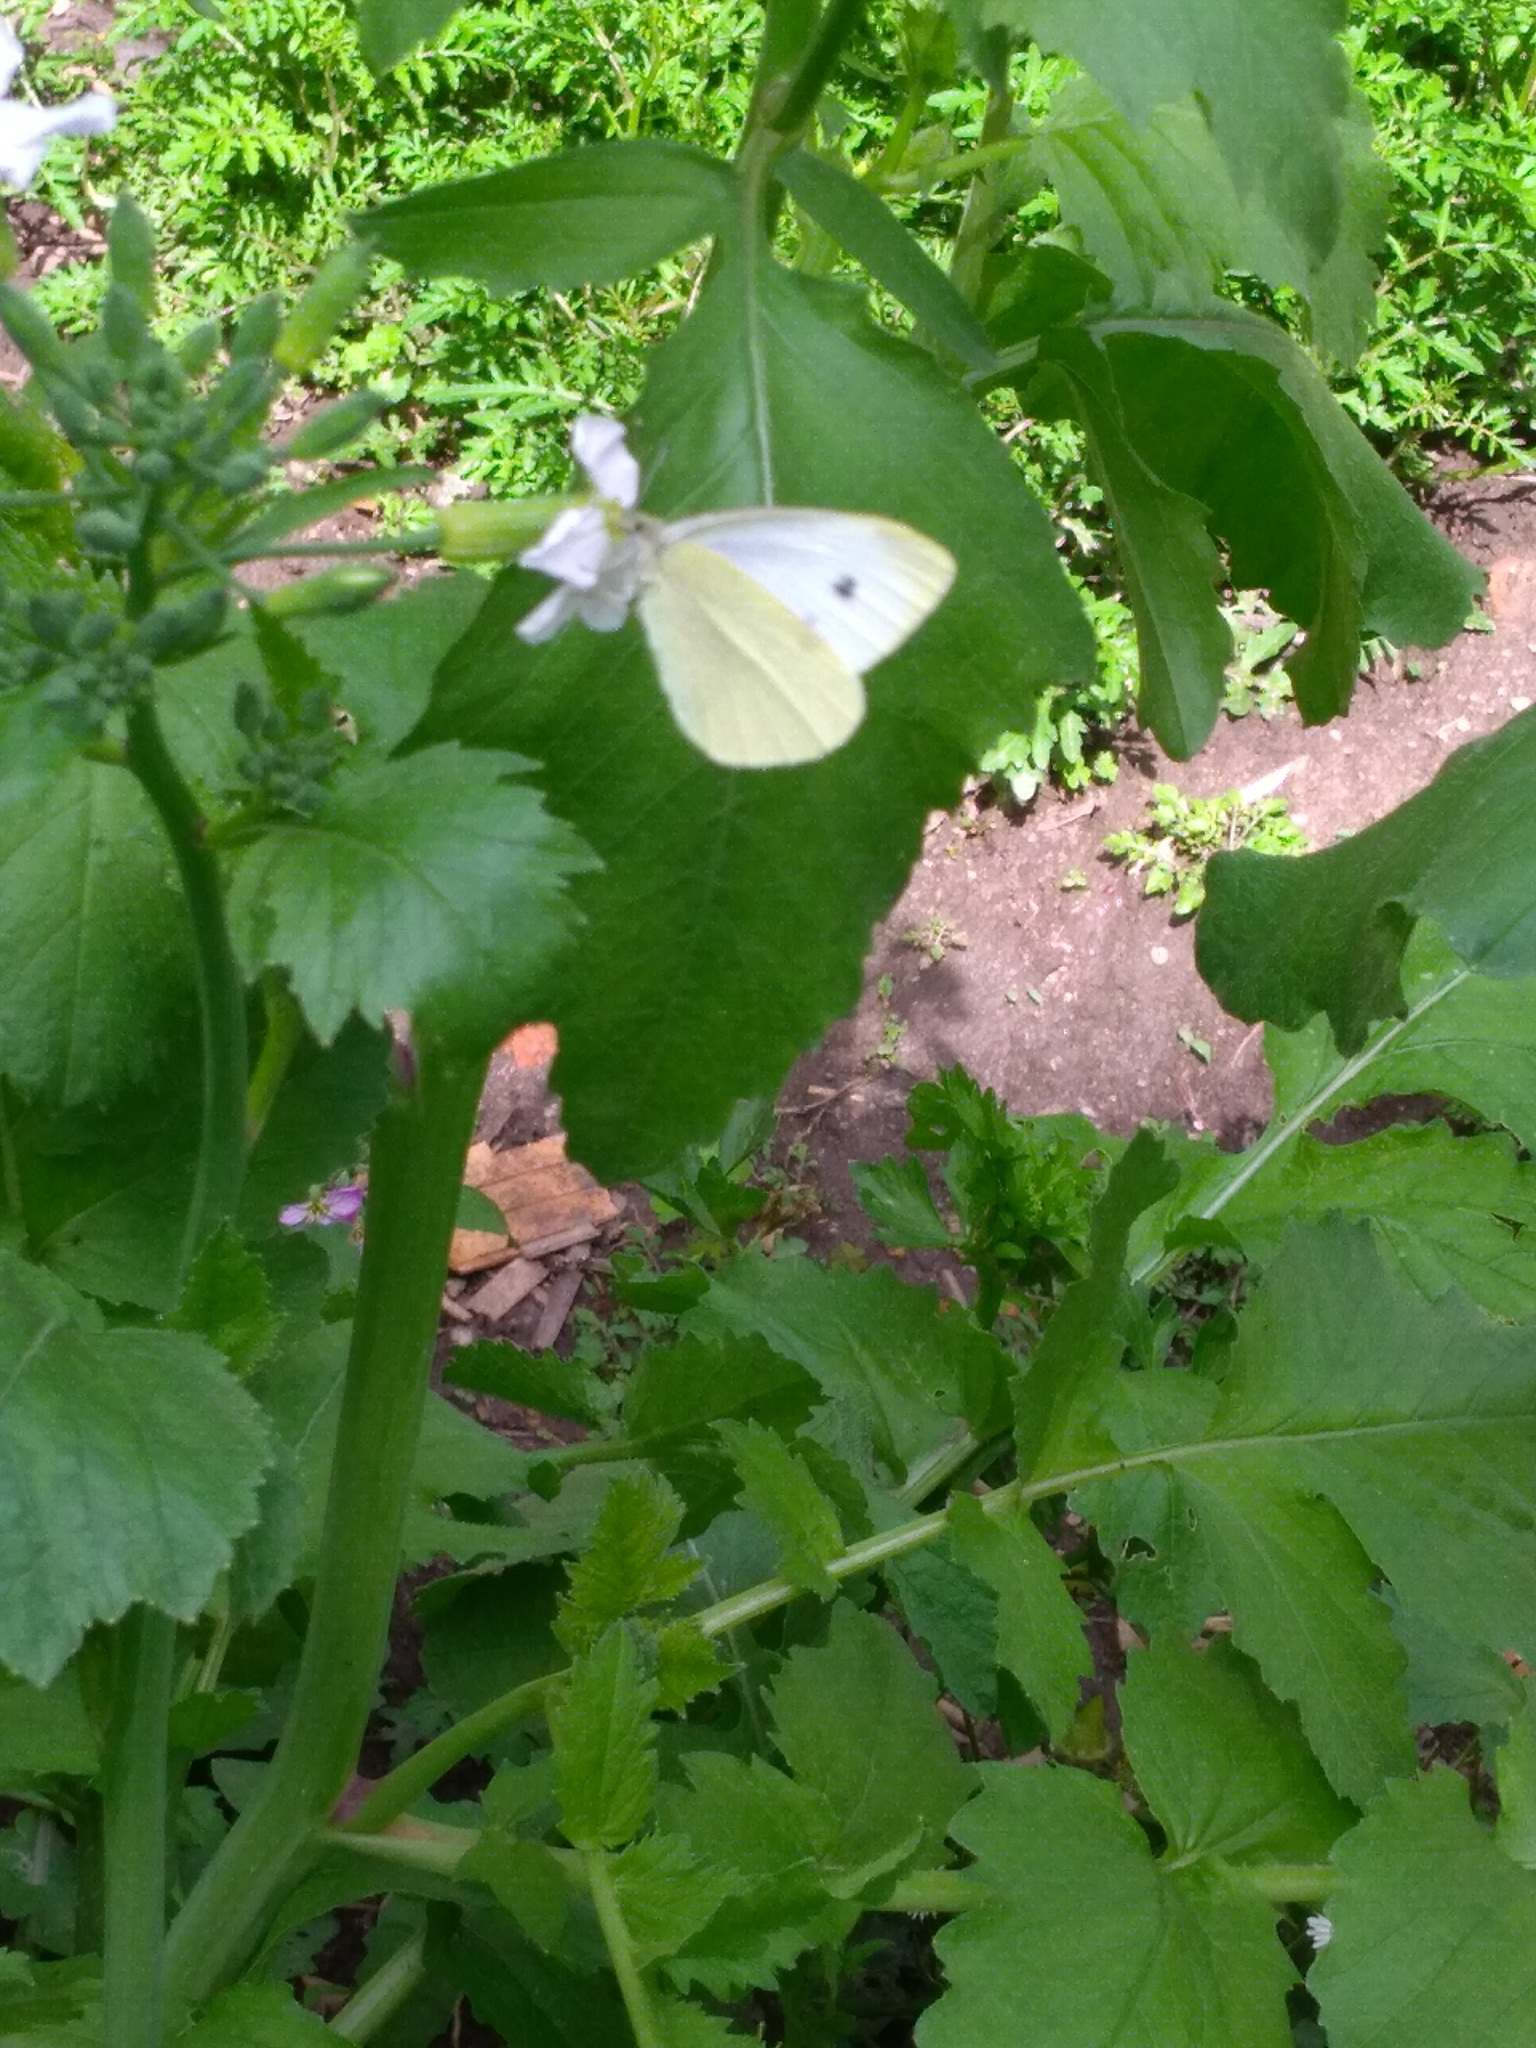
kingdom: Animalia
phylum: Arthropoda
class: Insecta
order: Lepidoptera
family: Pieridae
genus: Pieris
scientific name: Pieris rapae
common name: Small white
